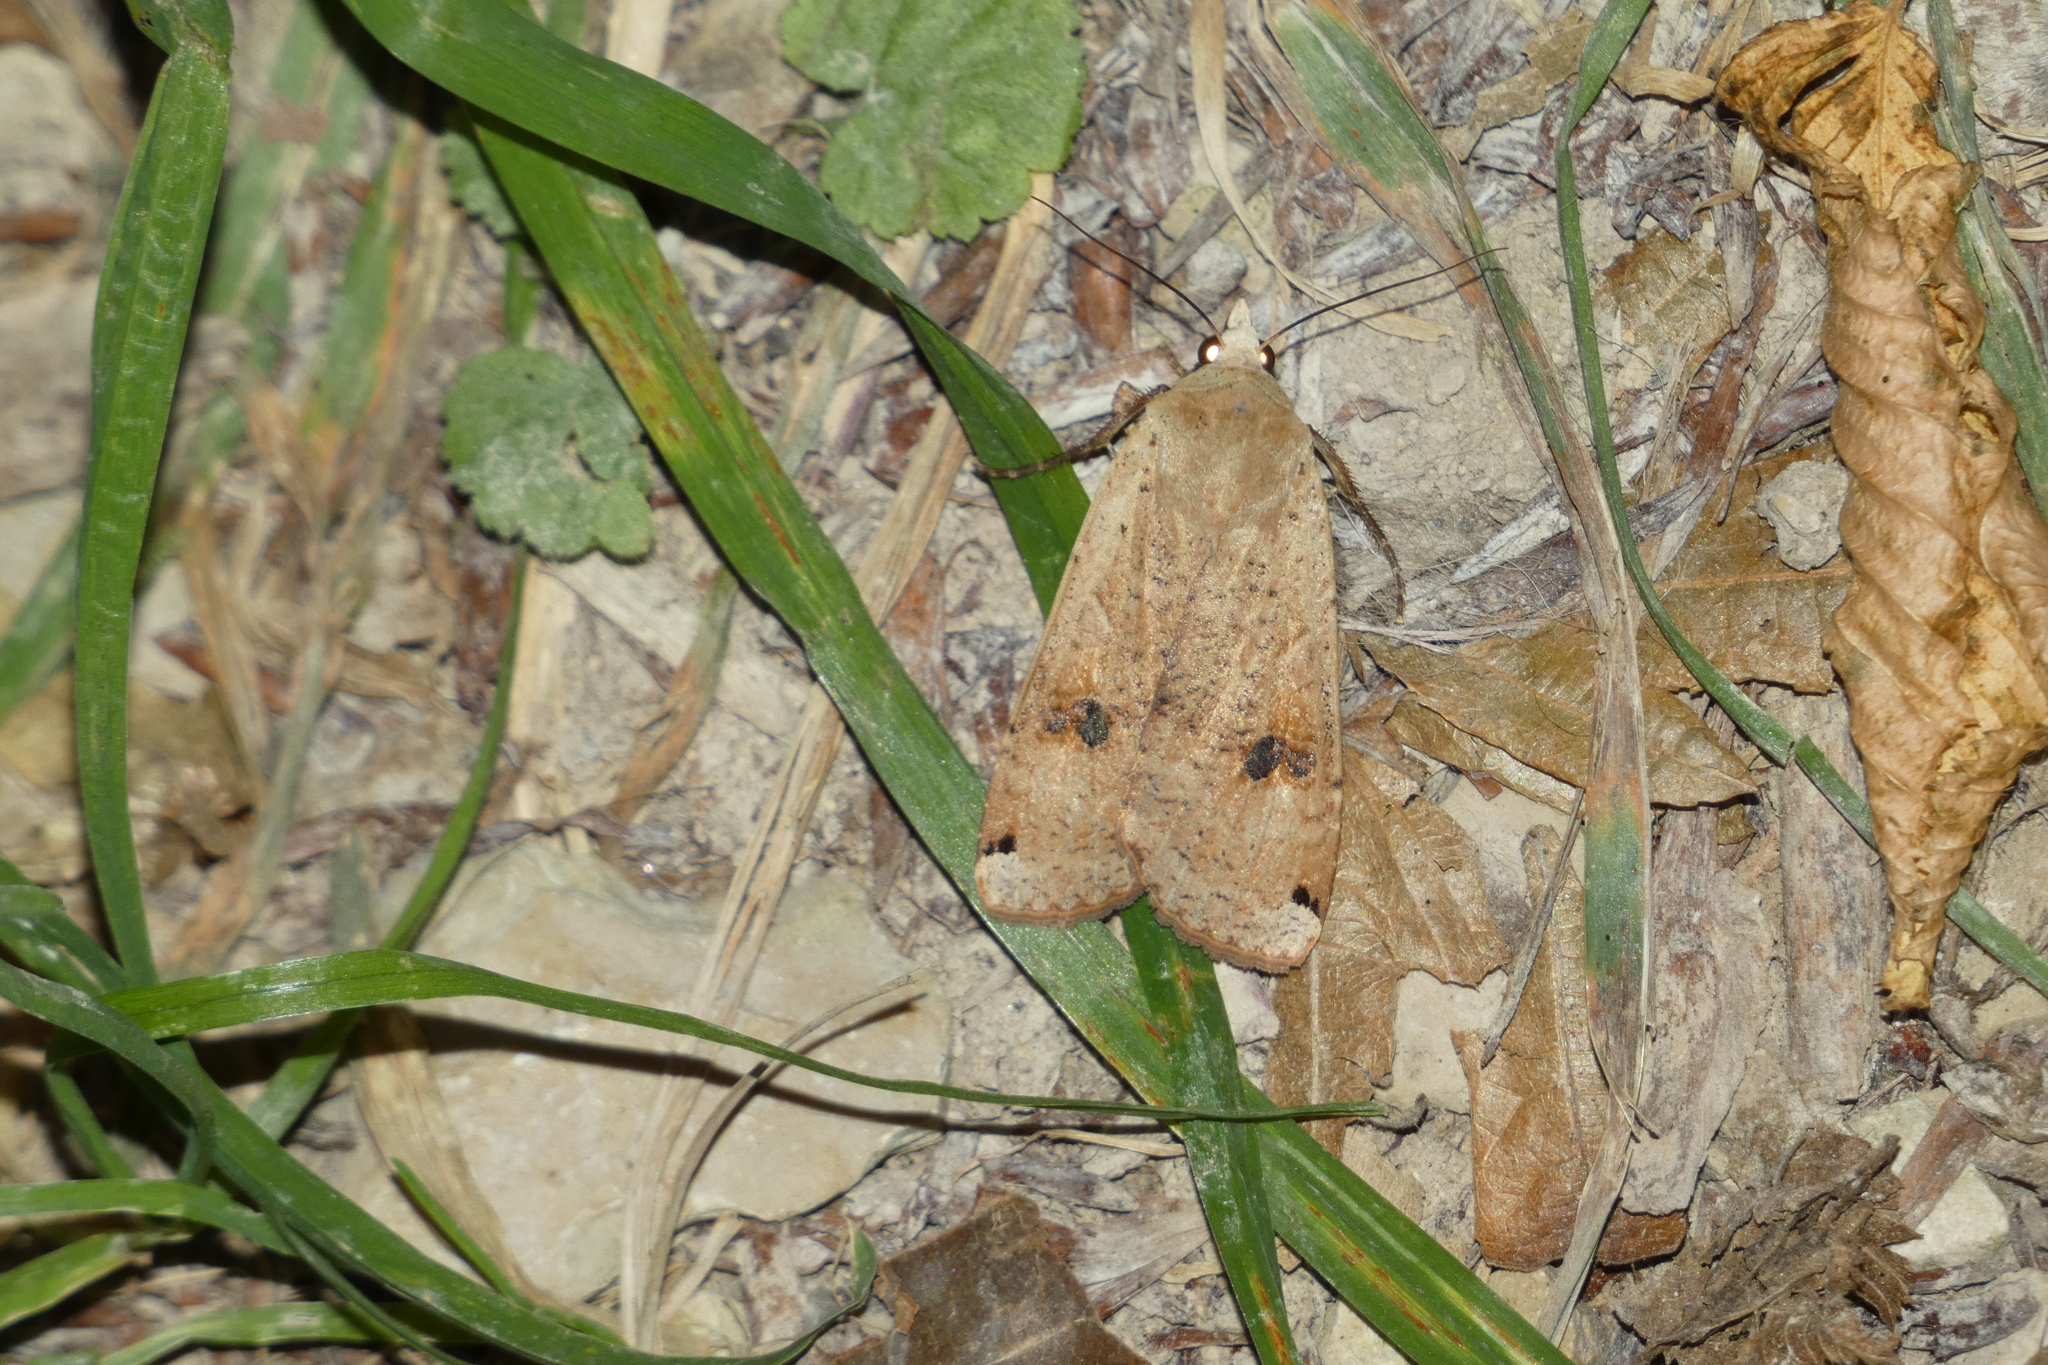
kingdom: Animalia
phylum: Arthropoda
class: Insecta
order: Lepidoptera
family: Noctuidae
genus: Noctua
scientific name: Noctua pronuba
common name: Large yellow underwing
